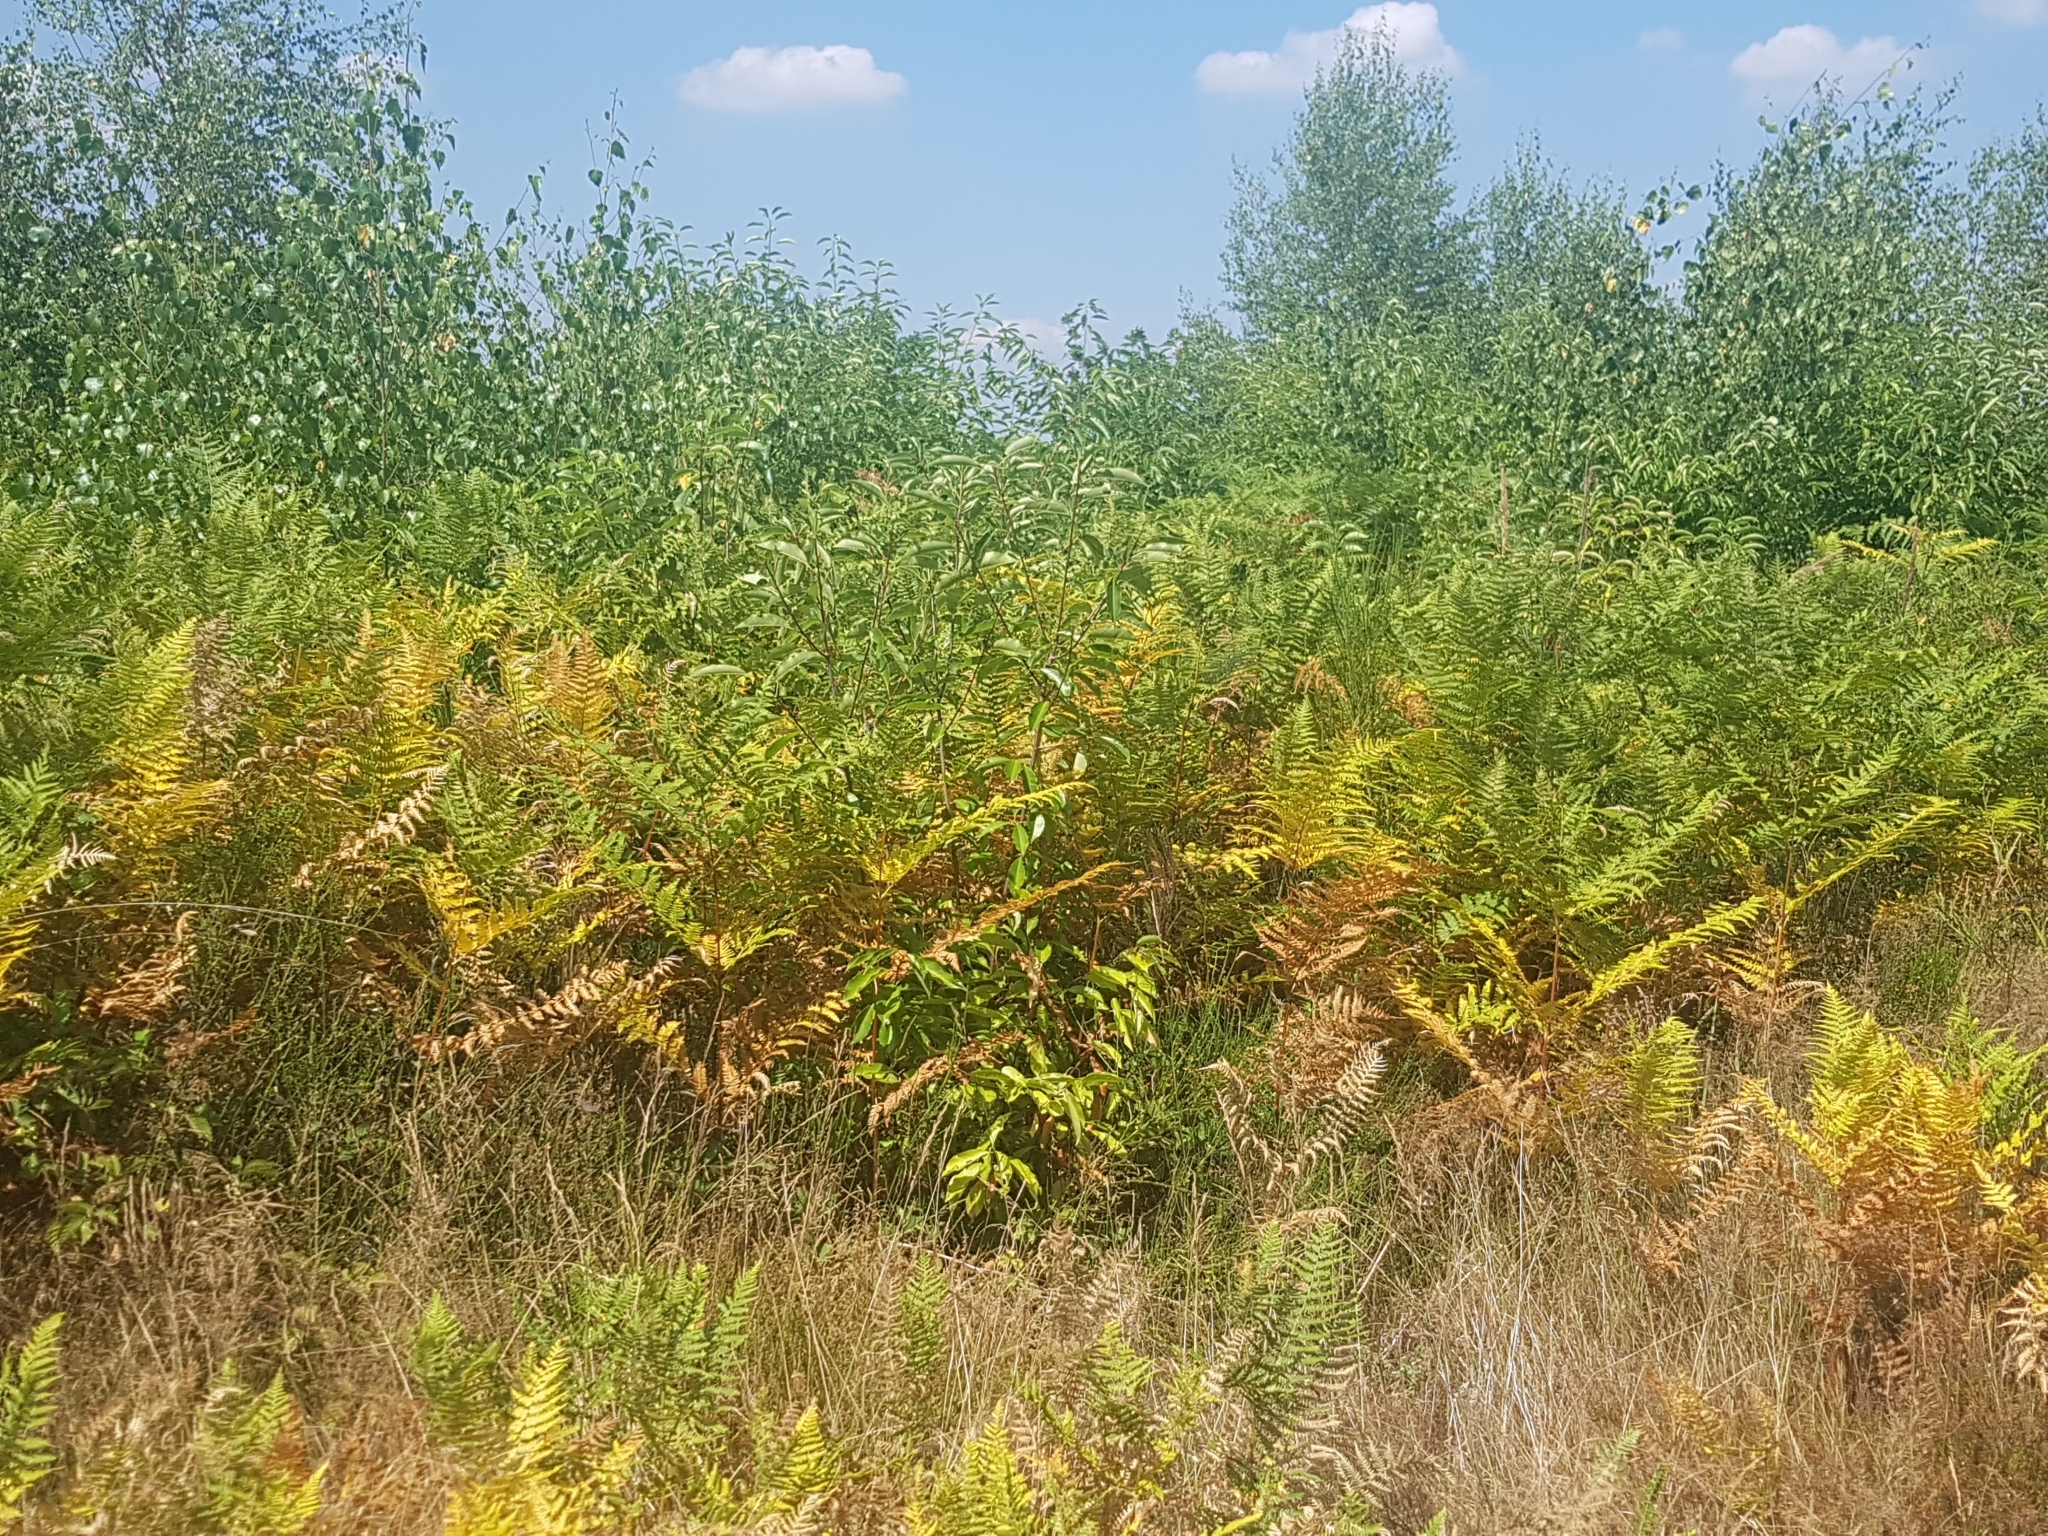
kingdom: Plantae
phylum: Tracheophyta
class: Polypodiopsida
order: Polypodiales
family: Dennstaedtiaceae
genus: Pteridium
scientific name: Pteridium aquilinum
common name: Bracken
